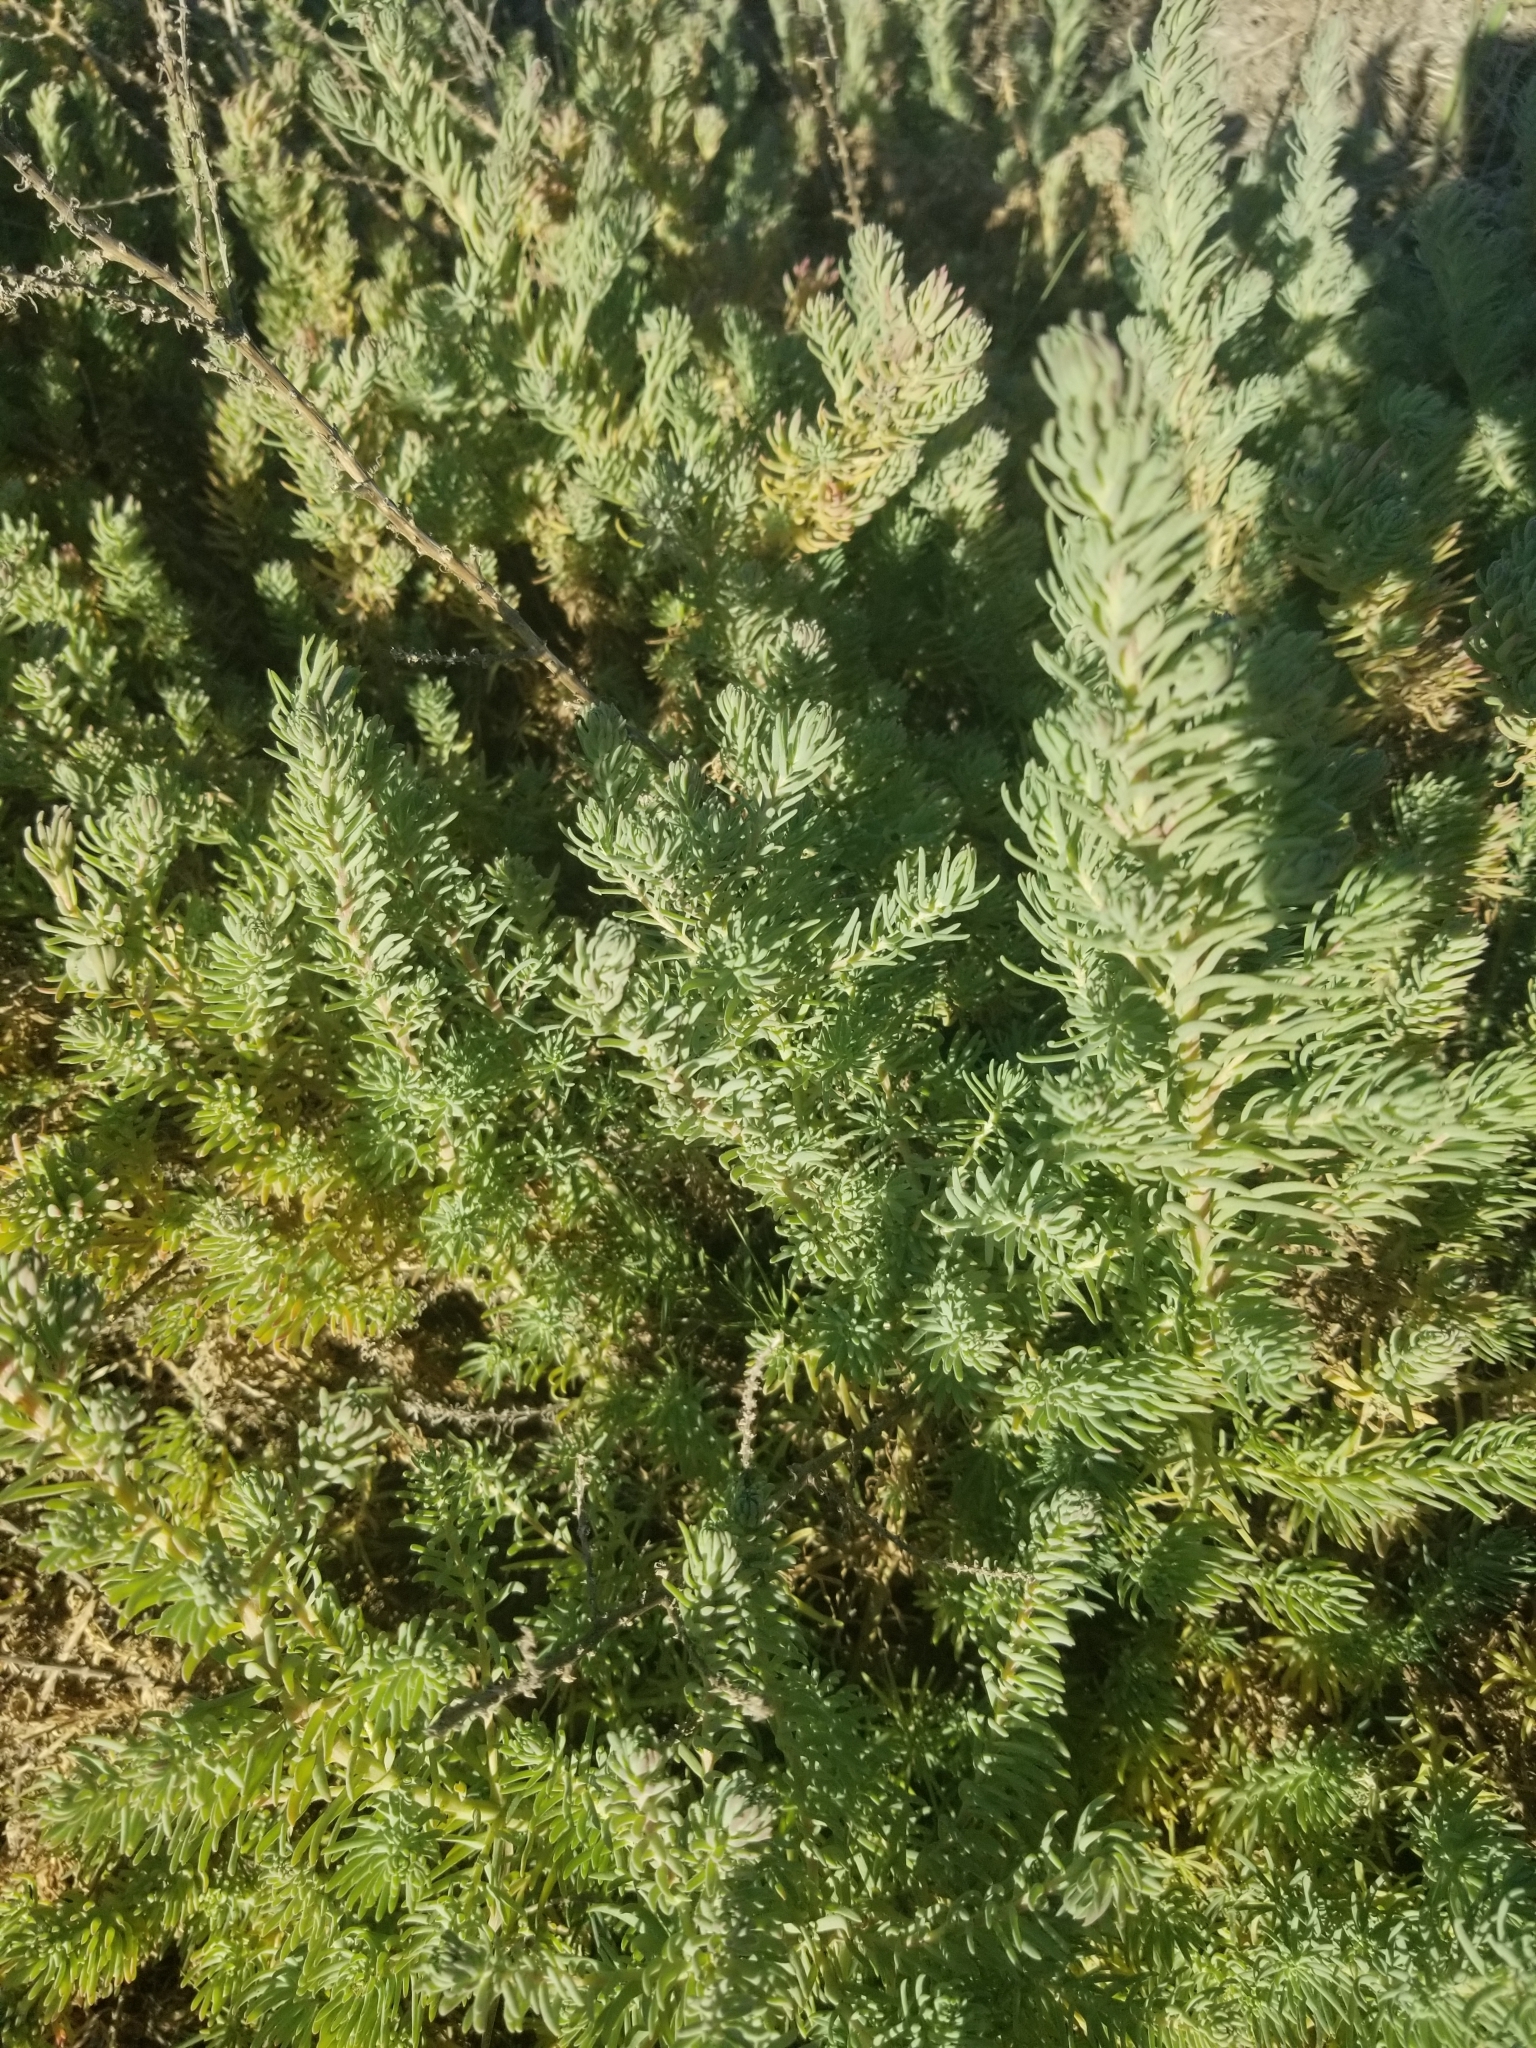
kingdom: Plantae
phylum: Tracheophyta
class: Magnoliopsida
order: Caryophyllales
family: Amaranthaceae
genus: Suaeda
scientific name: Suaeda taxifolia
